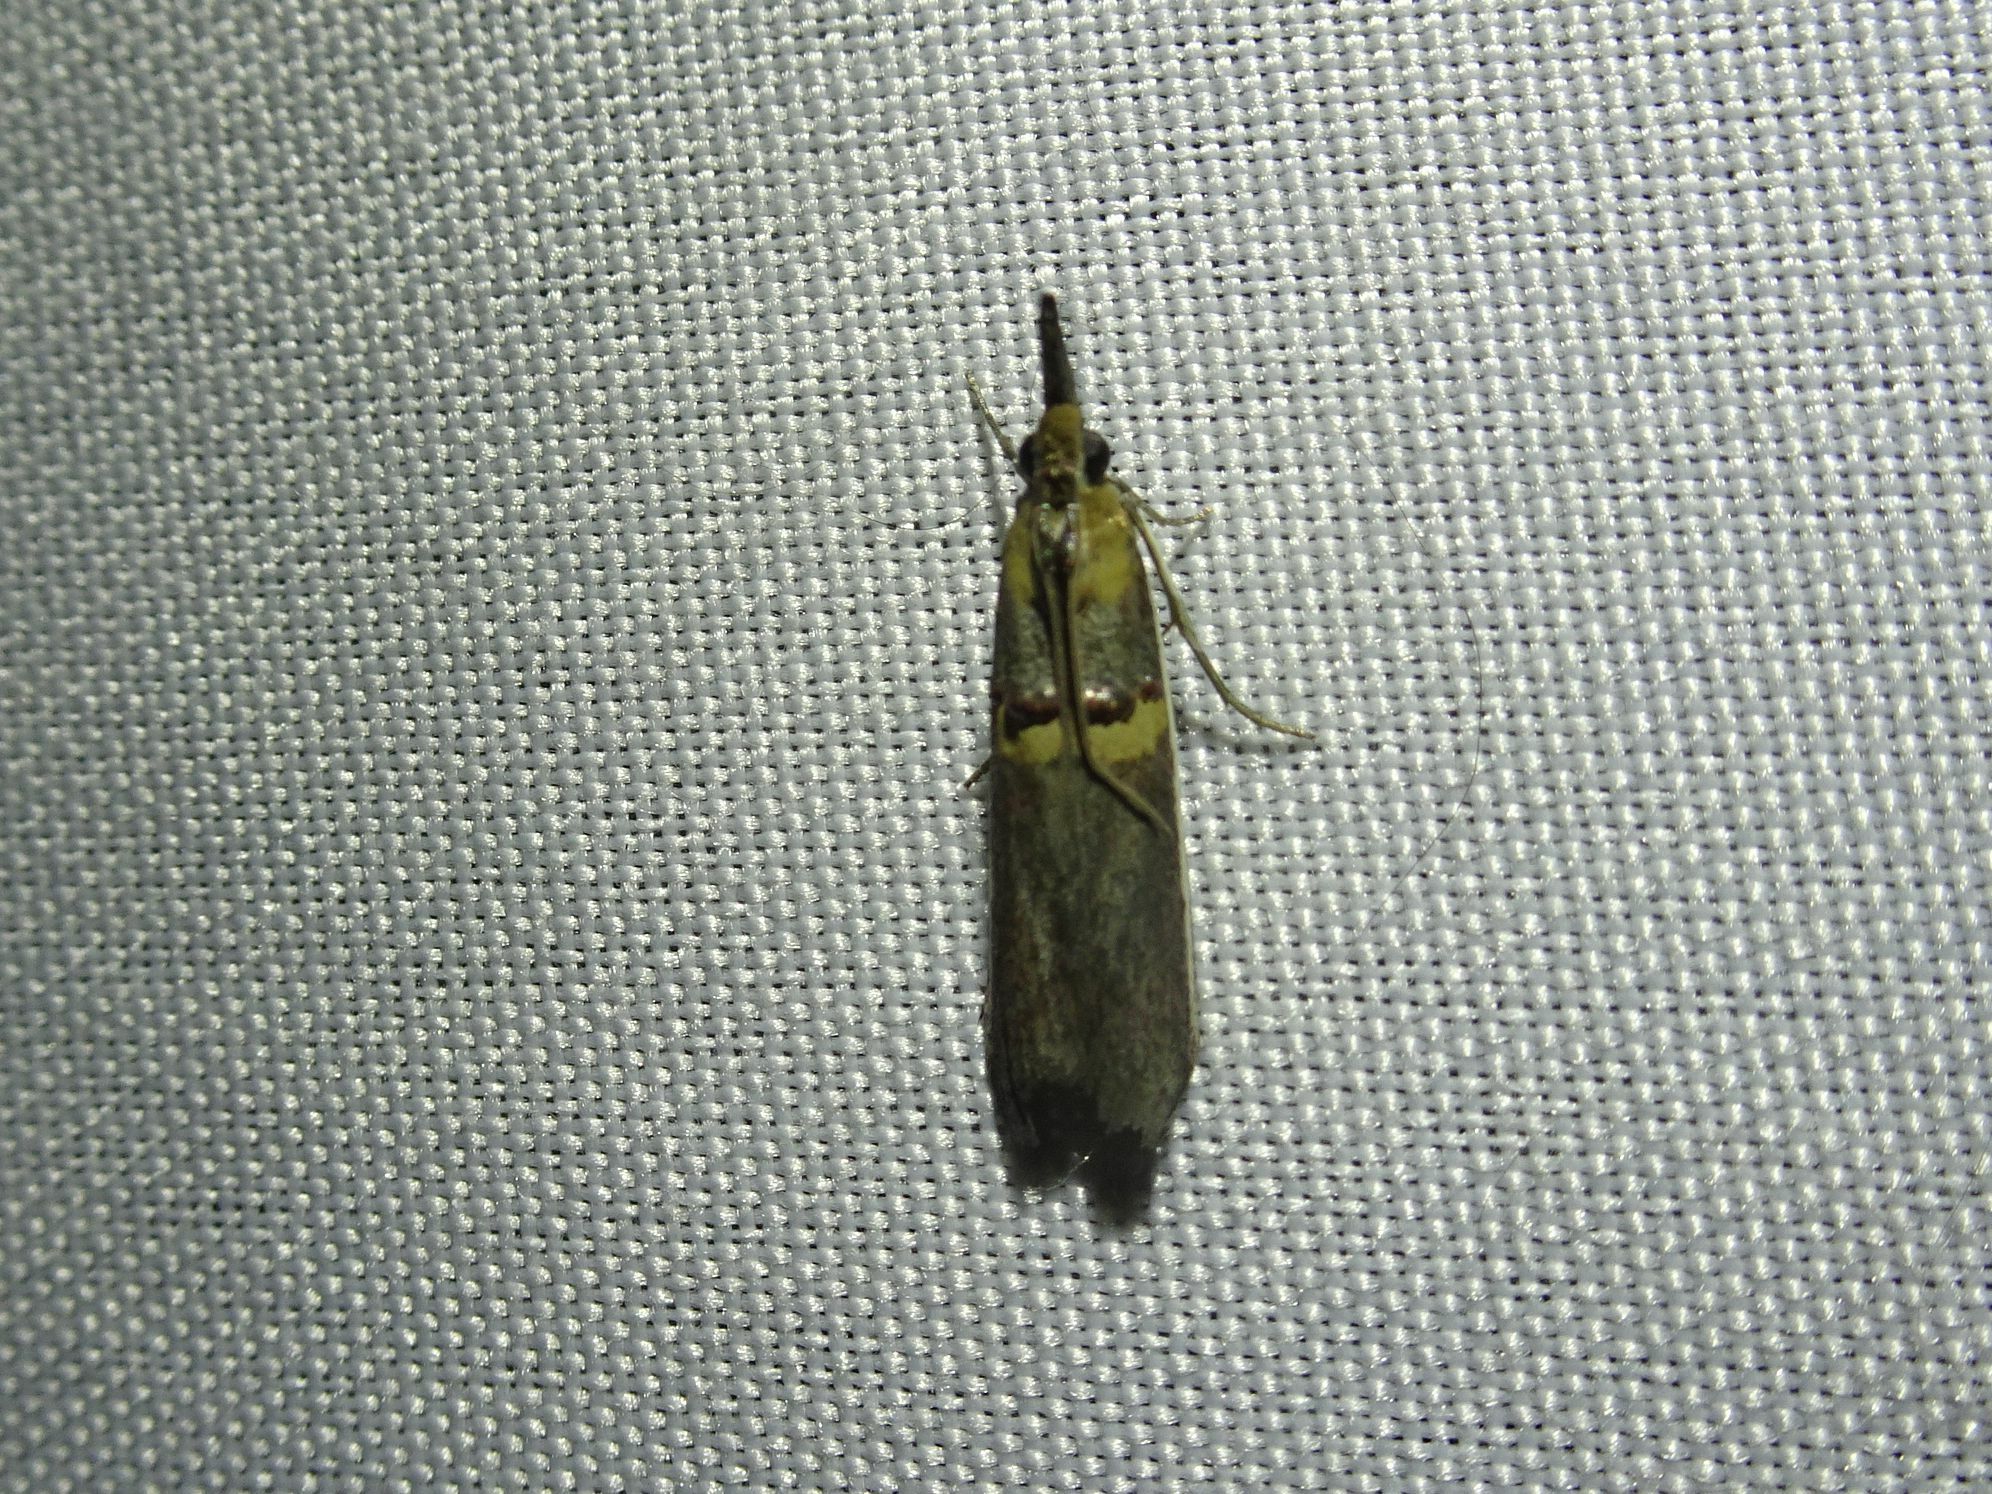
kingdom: Animalia
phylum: Arthropoda
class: Insecta
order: Lepidoptera
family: Pyralidae
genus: Etiella
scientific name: Etiella zinckenella
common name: Gold-banded etiella moth
